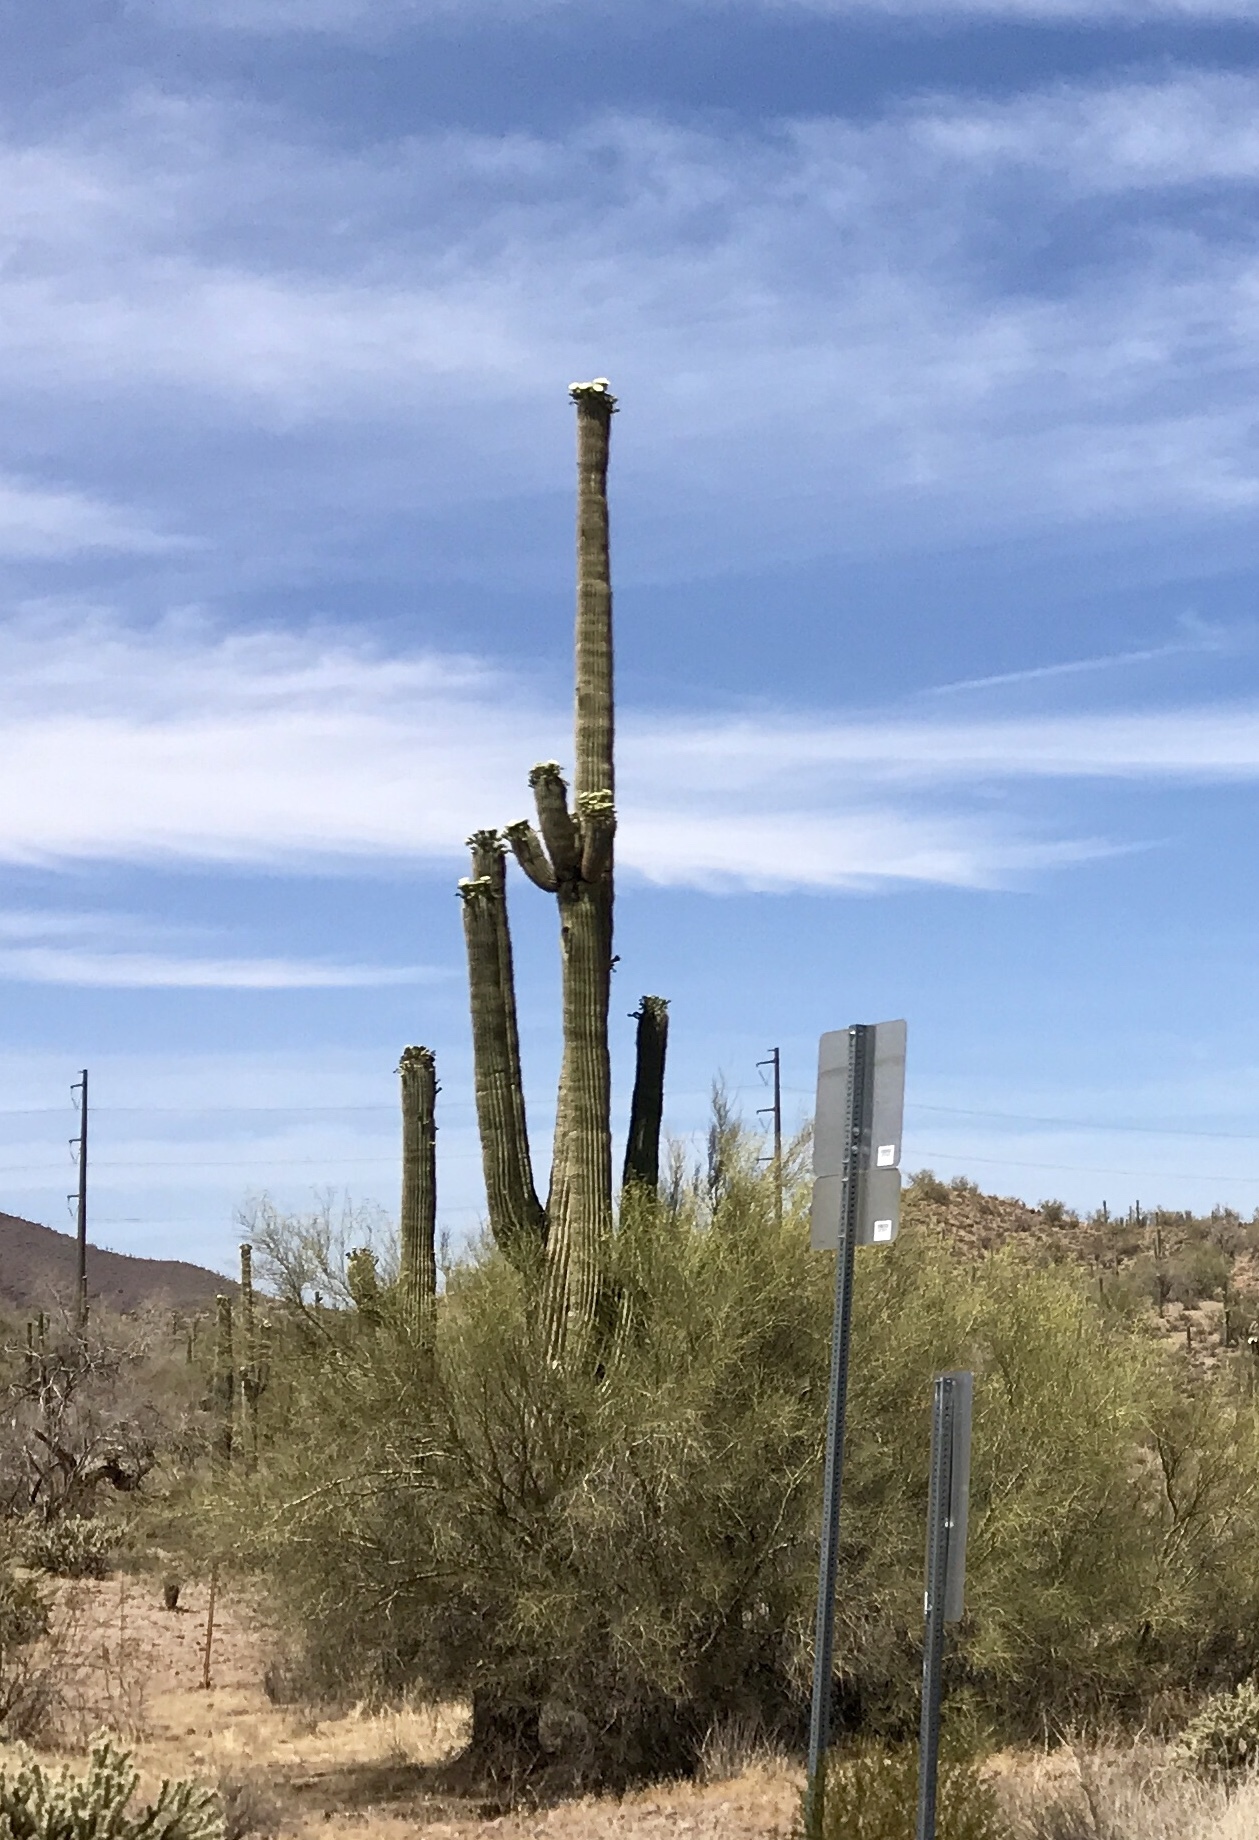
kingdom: Plantae
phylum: Tracheophyta
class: Magnoliopsida
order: Caryophyllales
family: Cactaceae
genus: Carnegiea
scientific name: Carnegiea gigantea
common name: Saguaro
